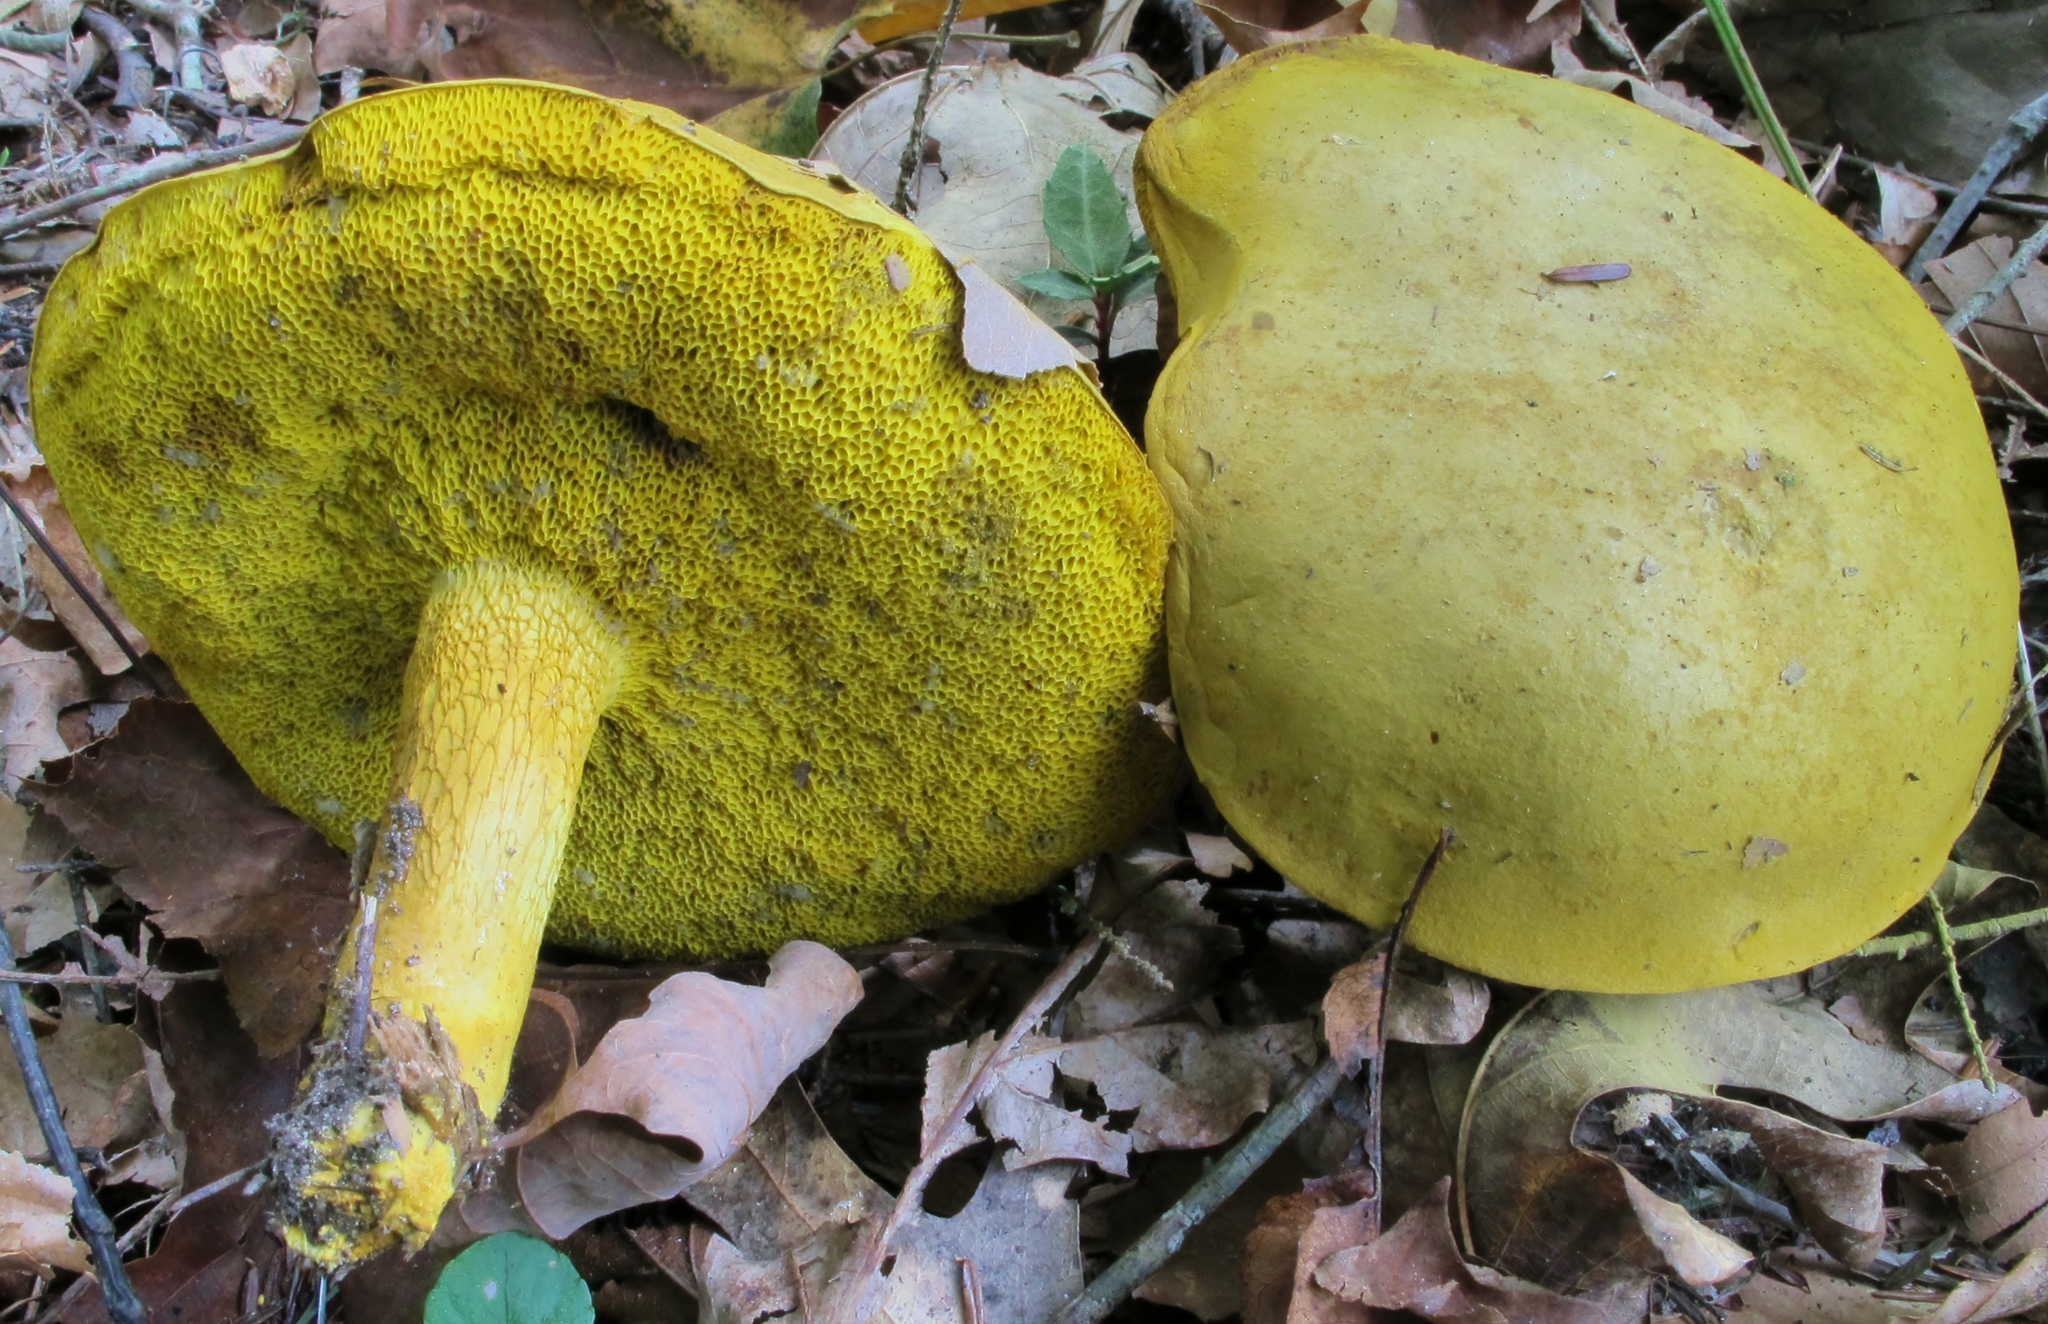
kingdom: Fungi
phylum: Basidiomycota
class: Agaricomycetes
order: Boletales
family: Boletaceae
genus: Retiboletus
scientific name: Retiboletus ornatipes
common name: Ornate-stalked bolete
